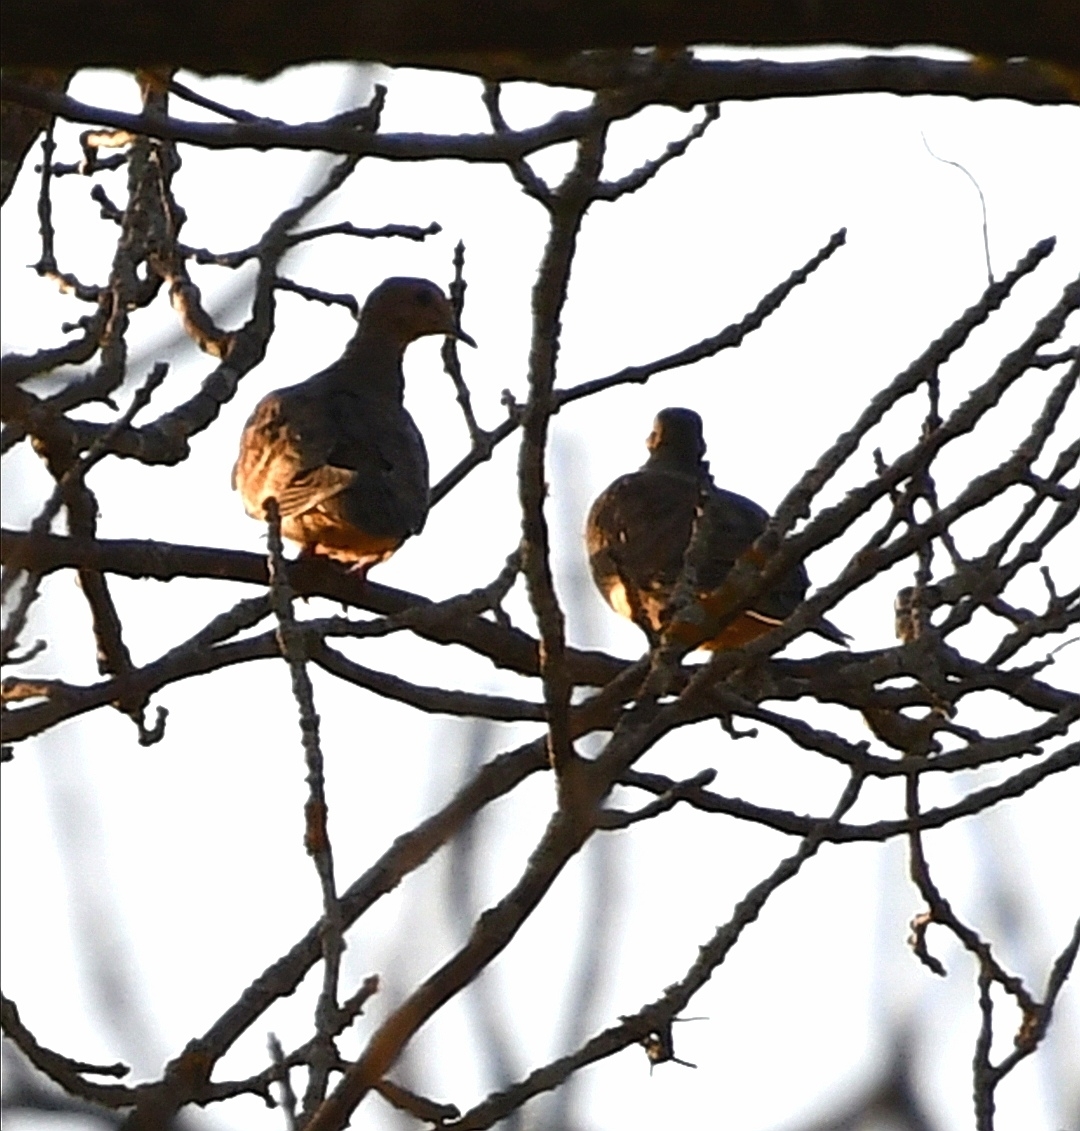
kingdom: Animalia
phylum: Chordata
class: Aves
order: Columbiformes
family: Columbidae
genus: Zenaida
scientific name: Zenaida macroura
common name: Mourning dove
